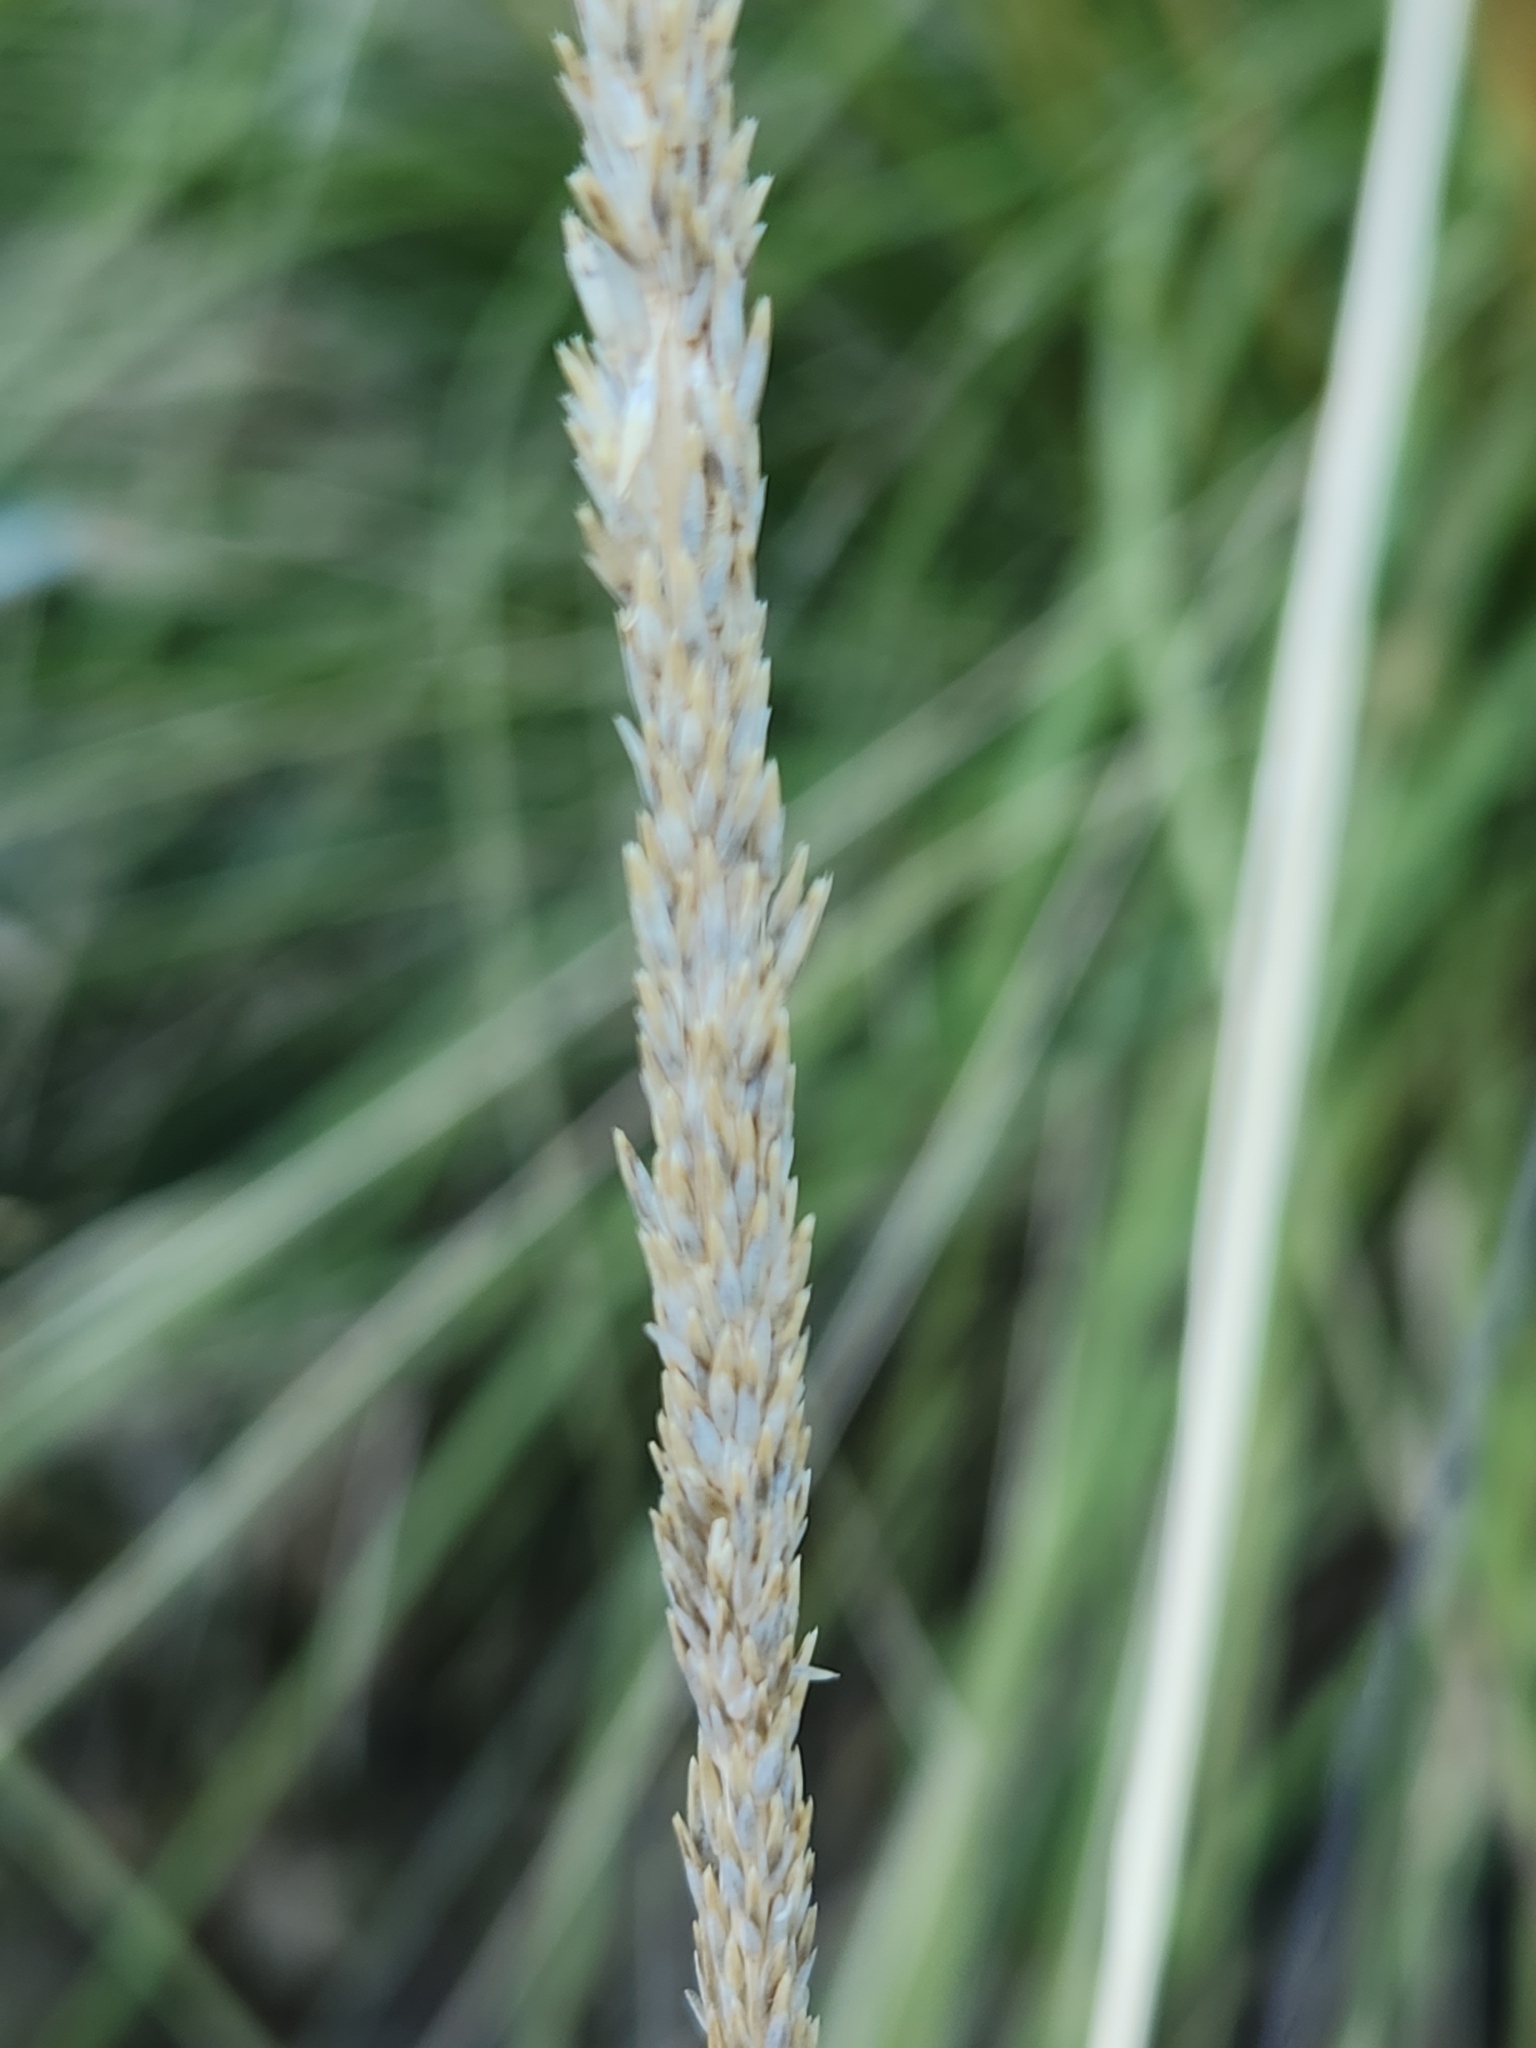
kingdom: Plantae
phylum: Tracheophyta
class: Liliopsida
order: Poales
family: Poaceae
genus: Muhlenbergia
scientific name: Muhlenbergia rigens
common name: Deer grass
